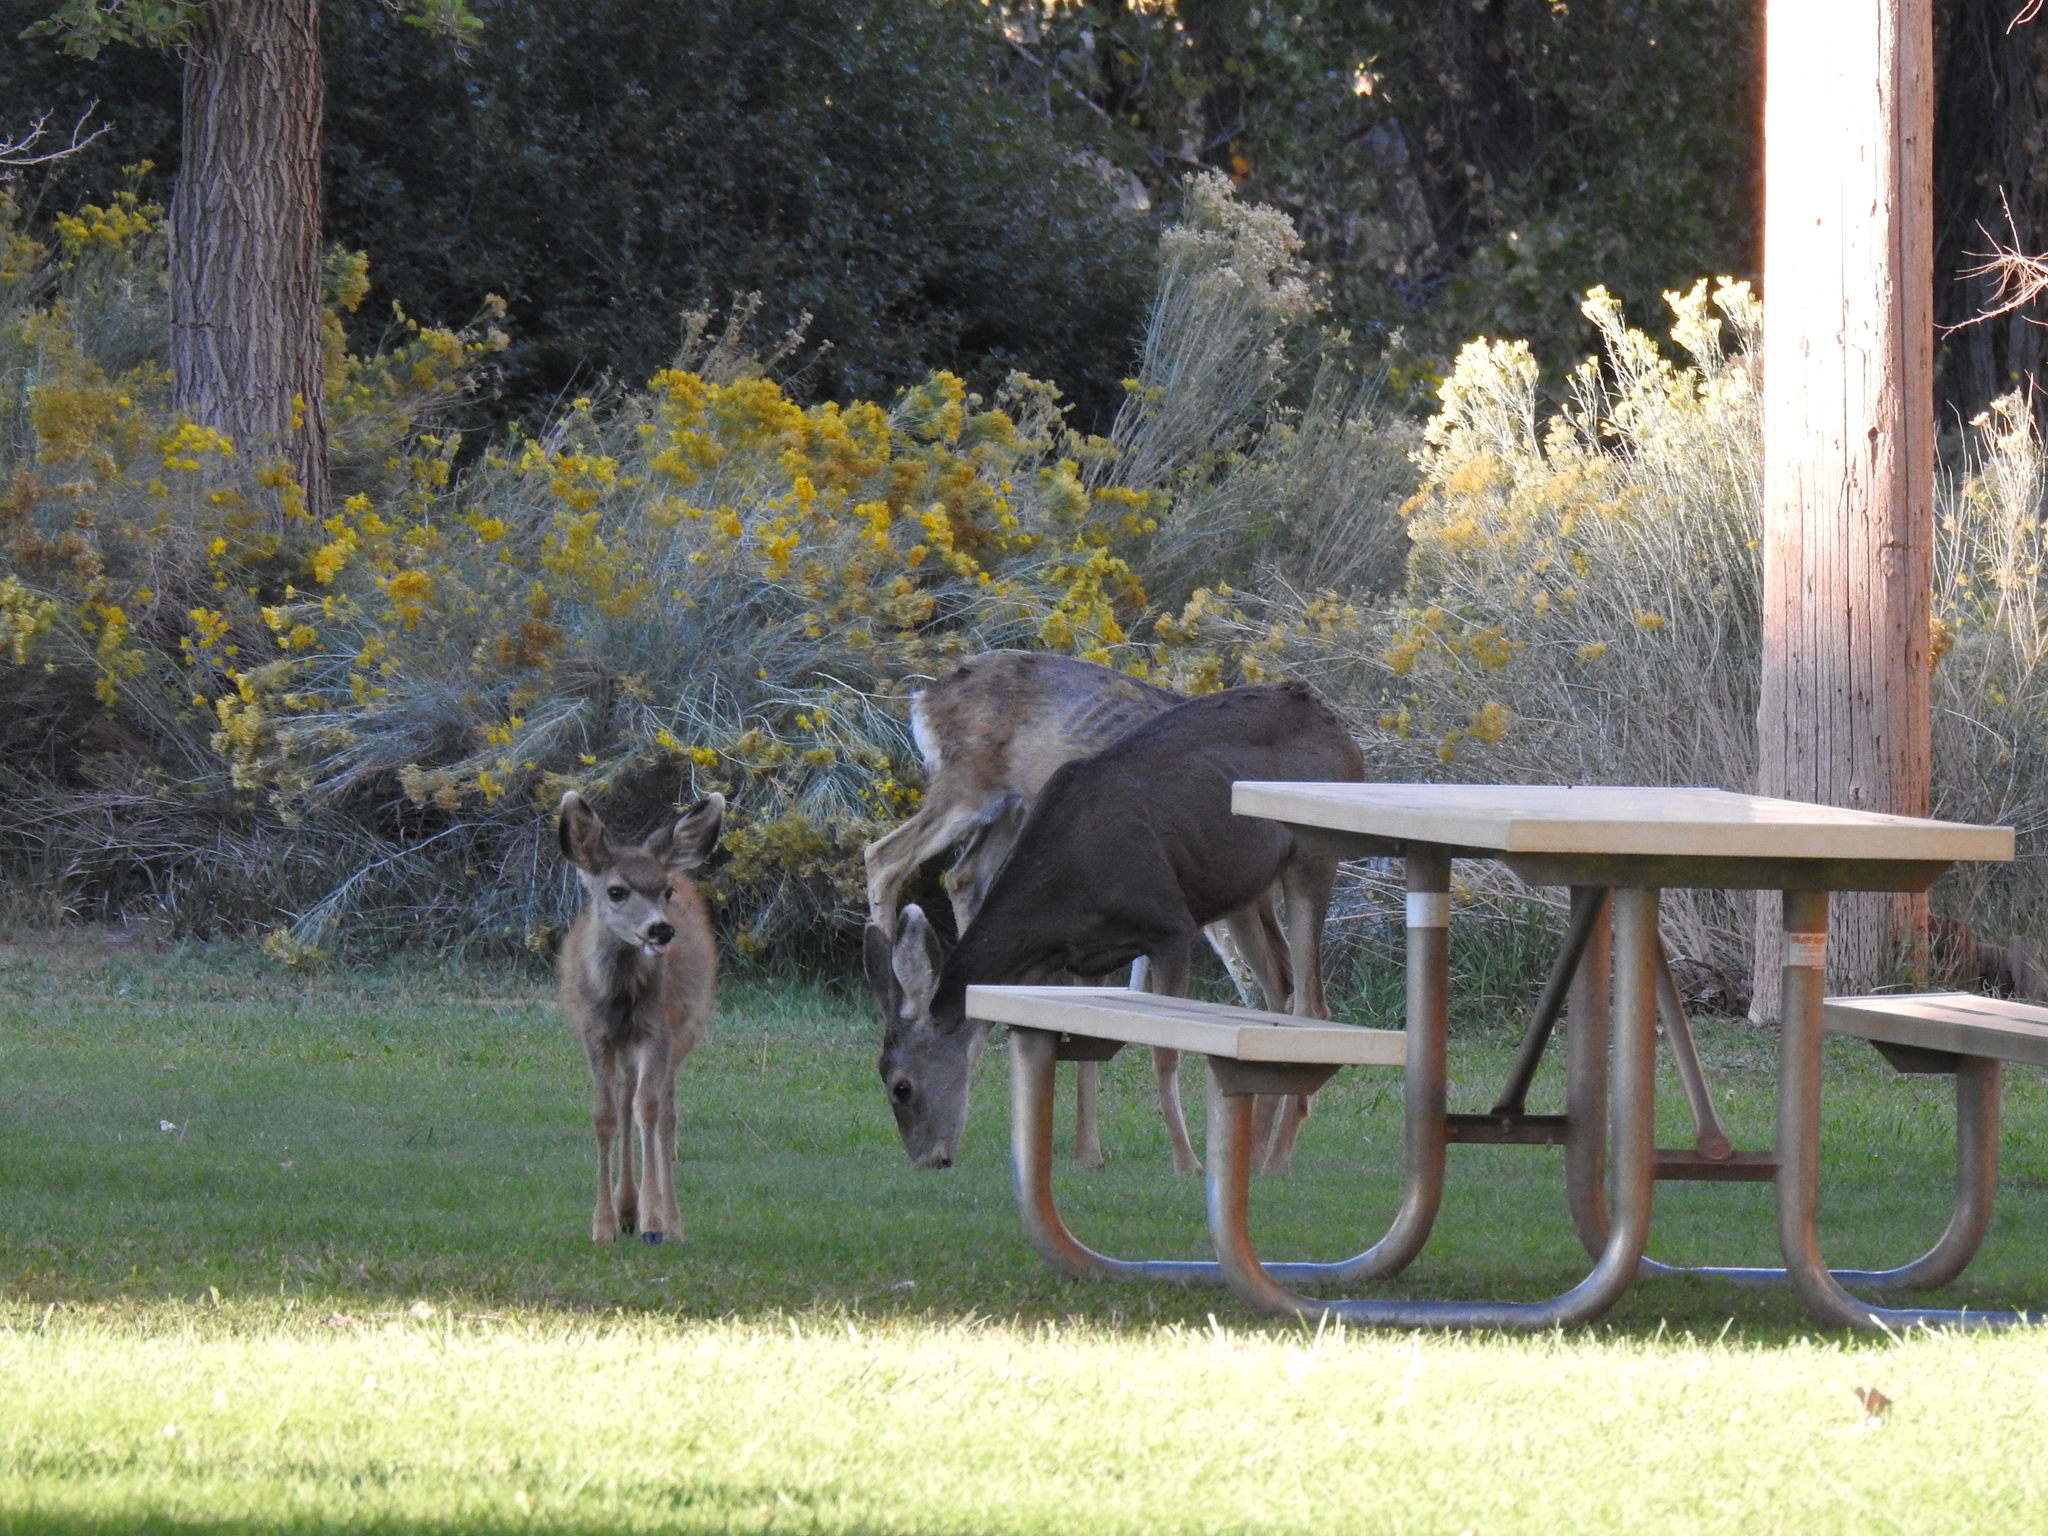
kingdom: Animalia
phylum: Chordata
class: Mammalia
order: Artiodactyla
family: Cervidae
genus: Odocoileus
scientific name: Odocoileus hemionus
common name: Mule deer
